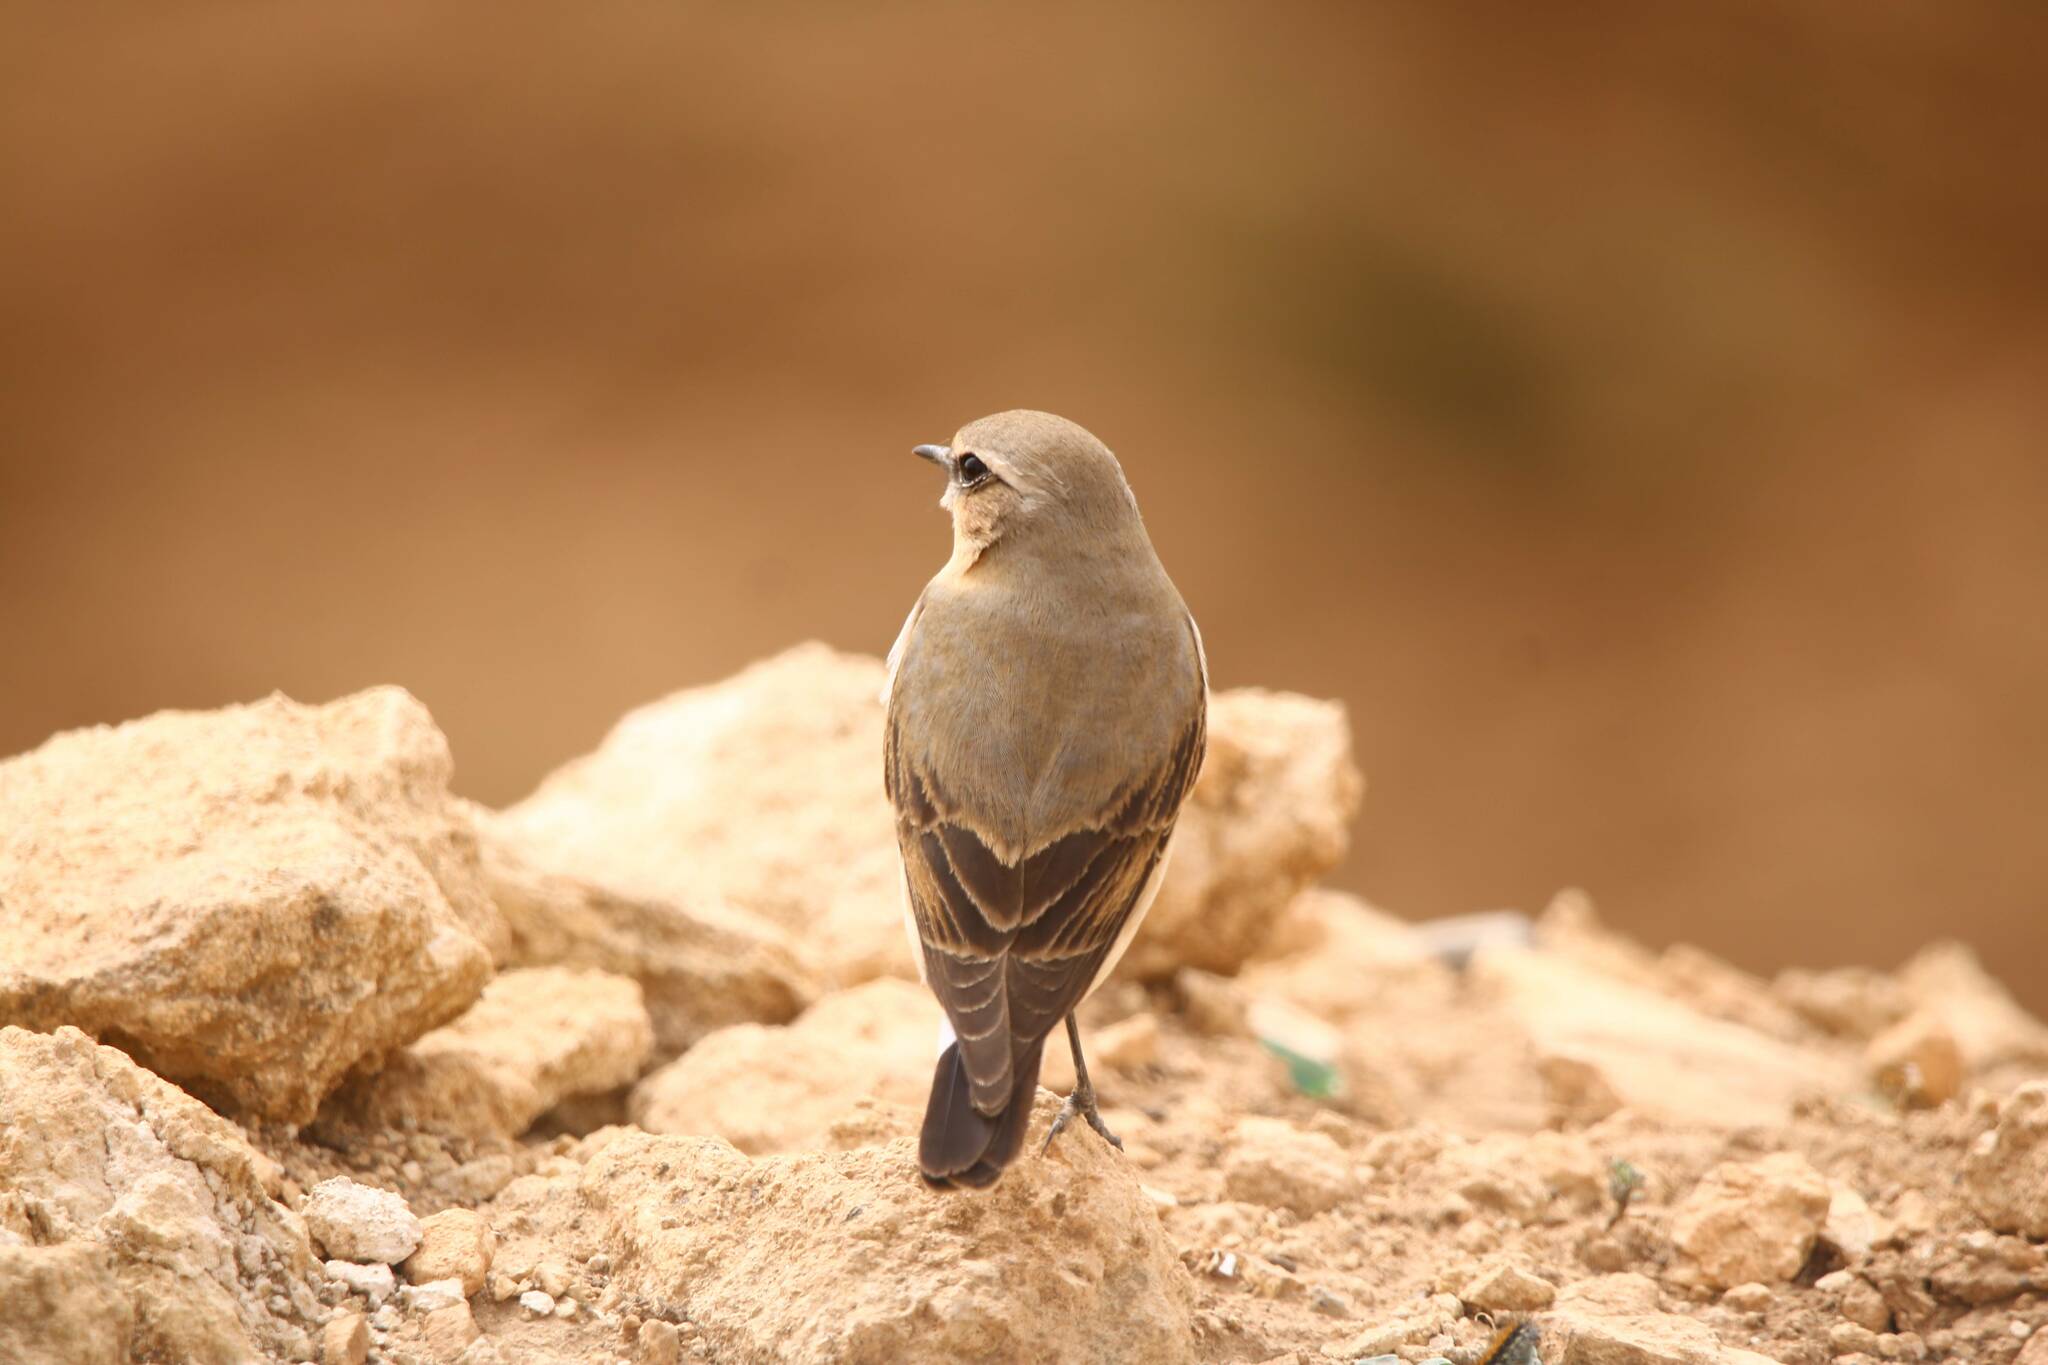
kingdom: Animalia
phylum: Chordata
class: Aves
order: Passeriformes
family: Muscicapidae
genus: Oenanthe
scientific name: Oenanthe oenanthe
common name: Northern wheatear
